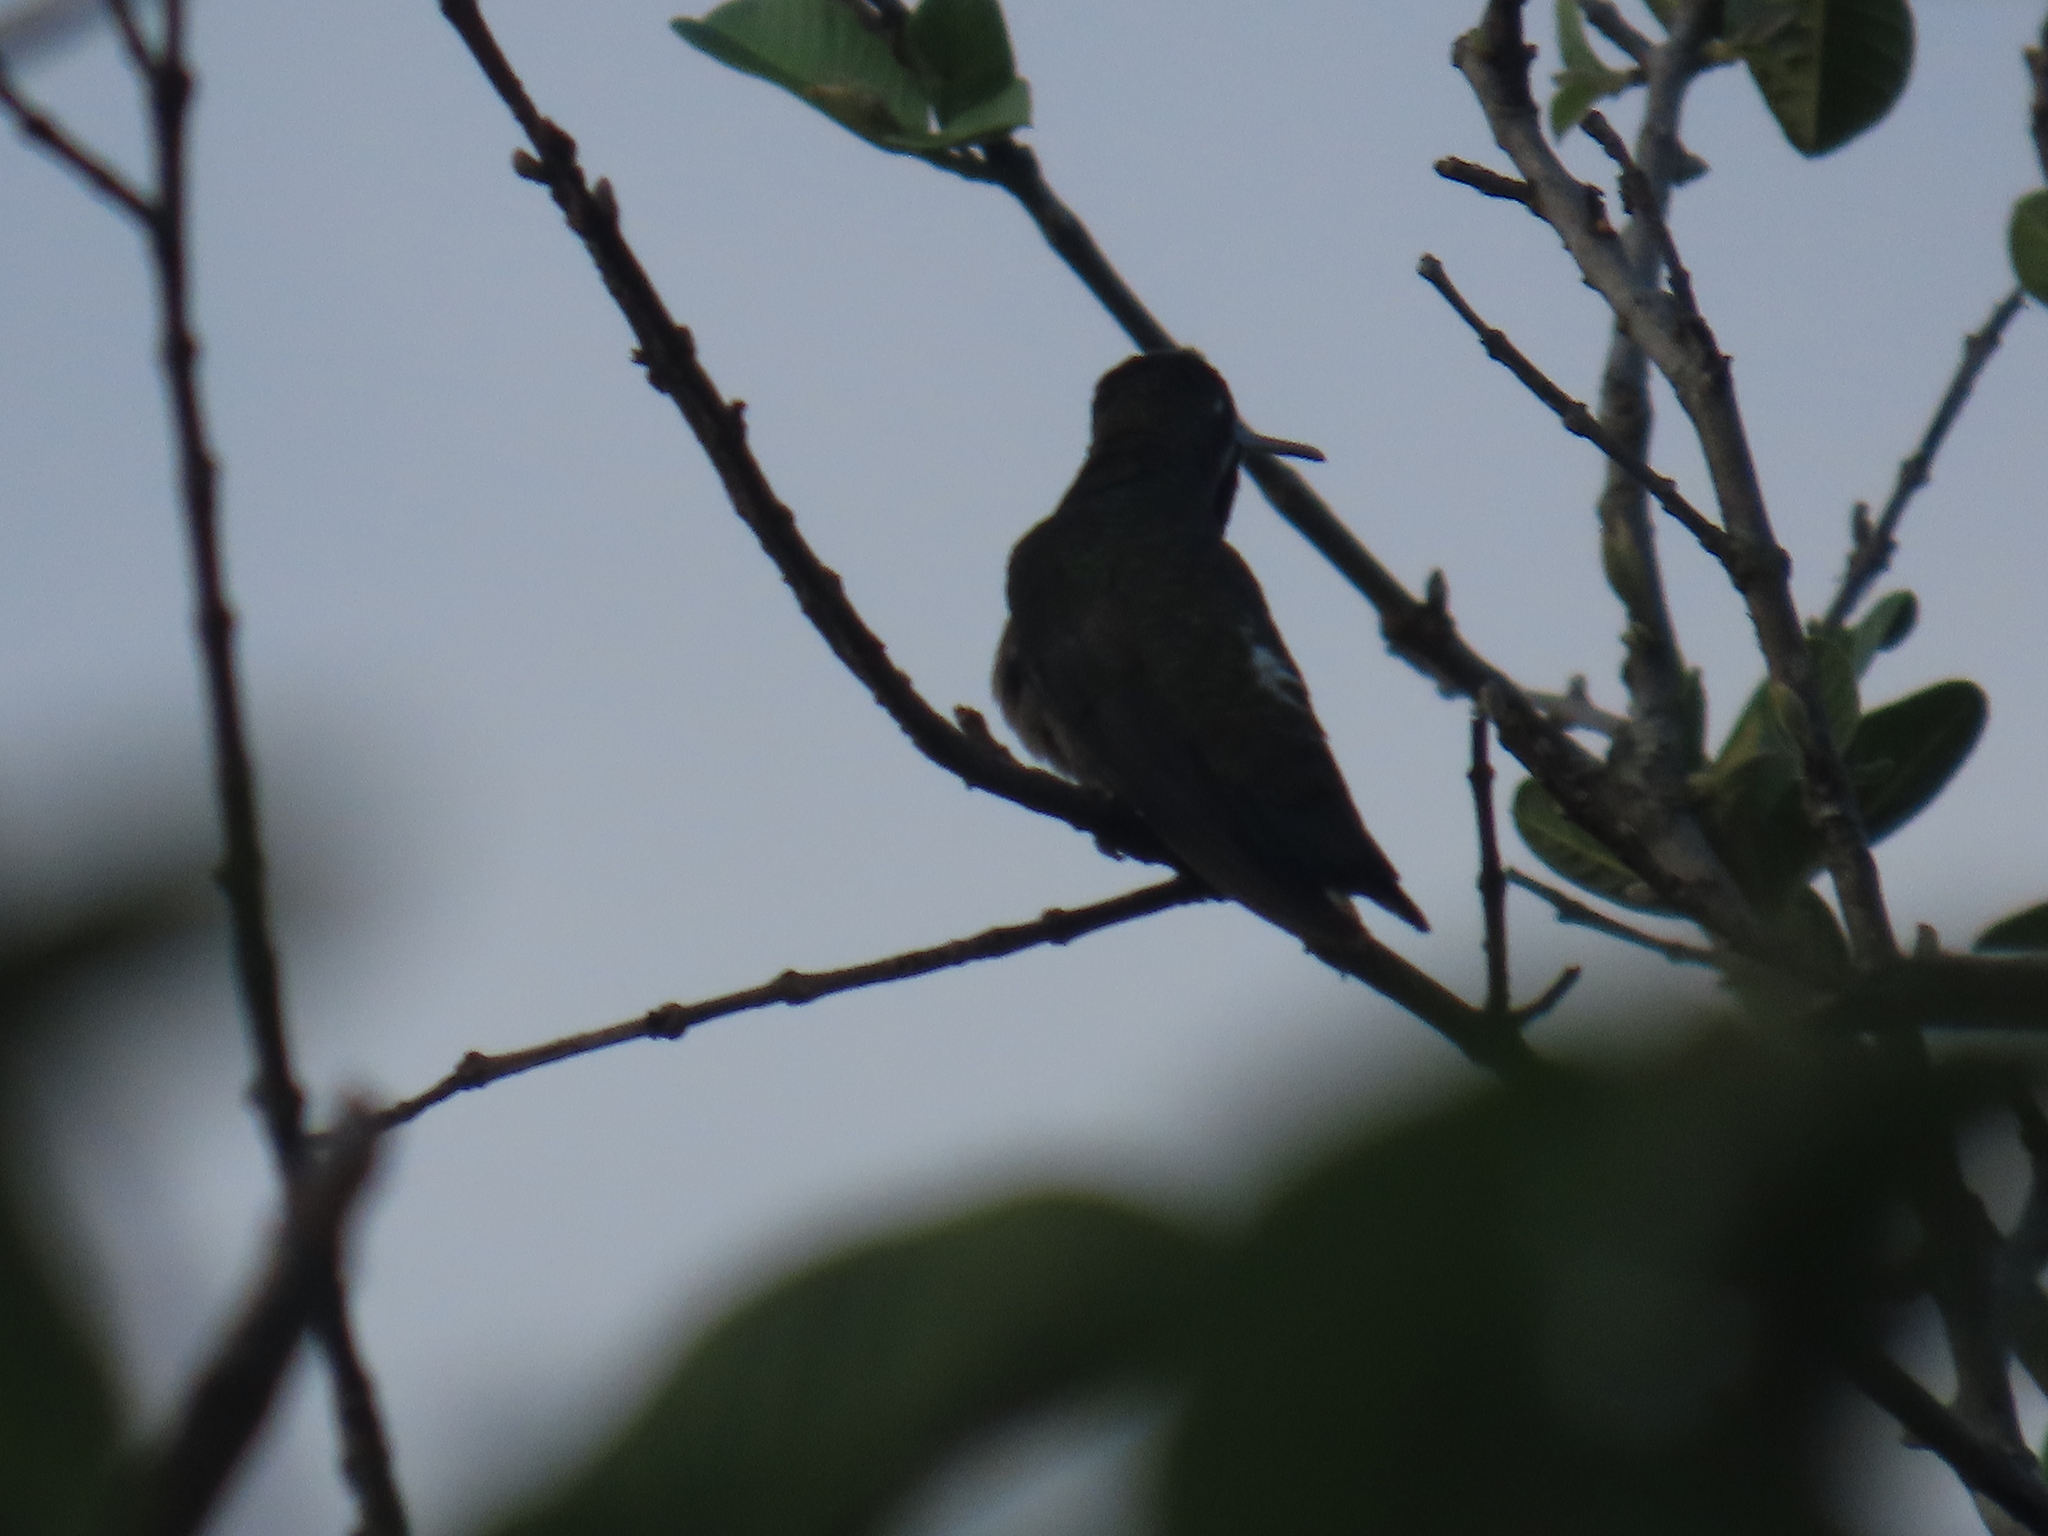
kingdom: Animalia
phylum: Chordata
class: Aves
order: Apodiformes
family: Trochilidae
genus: Heliomaster
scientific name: Heliomaster longirostris
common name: Long-billed starthroat
